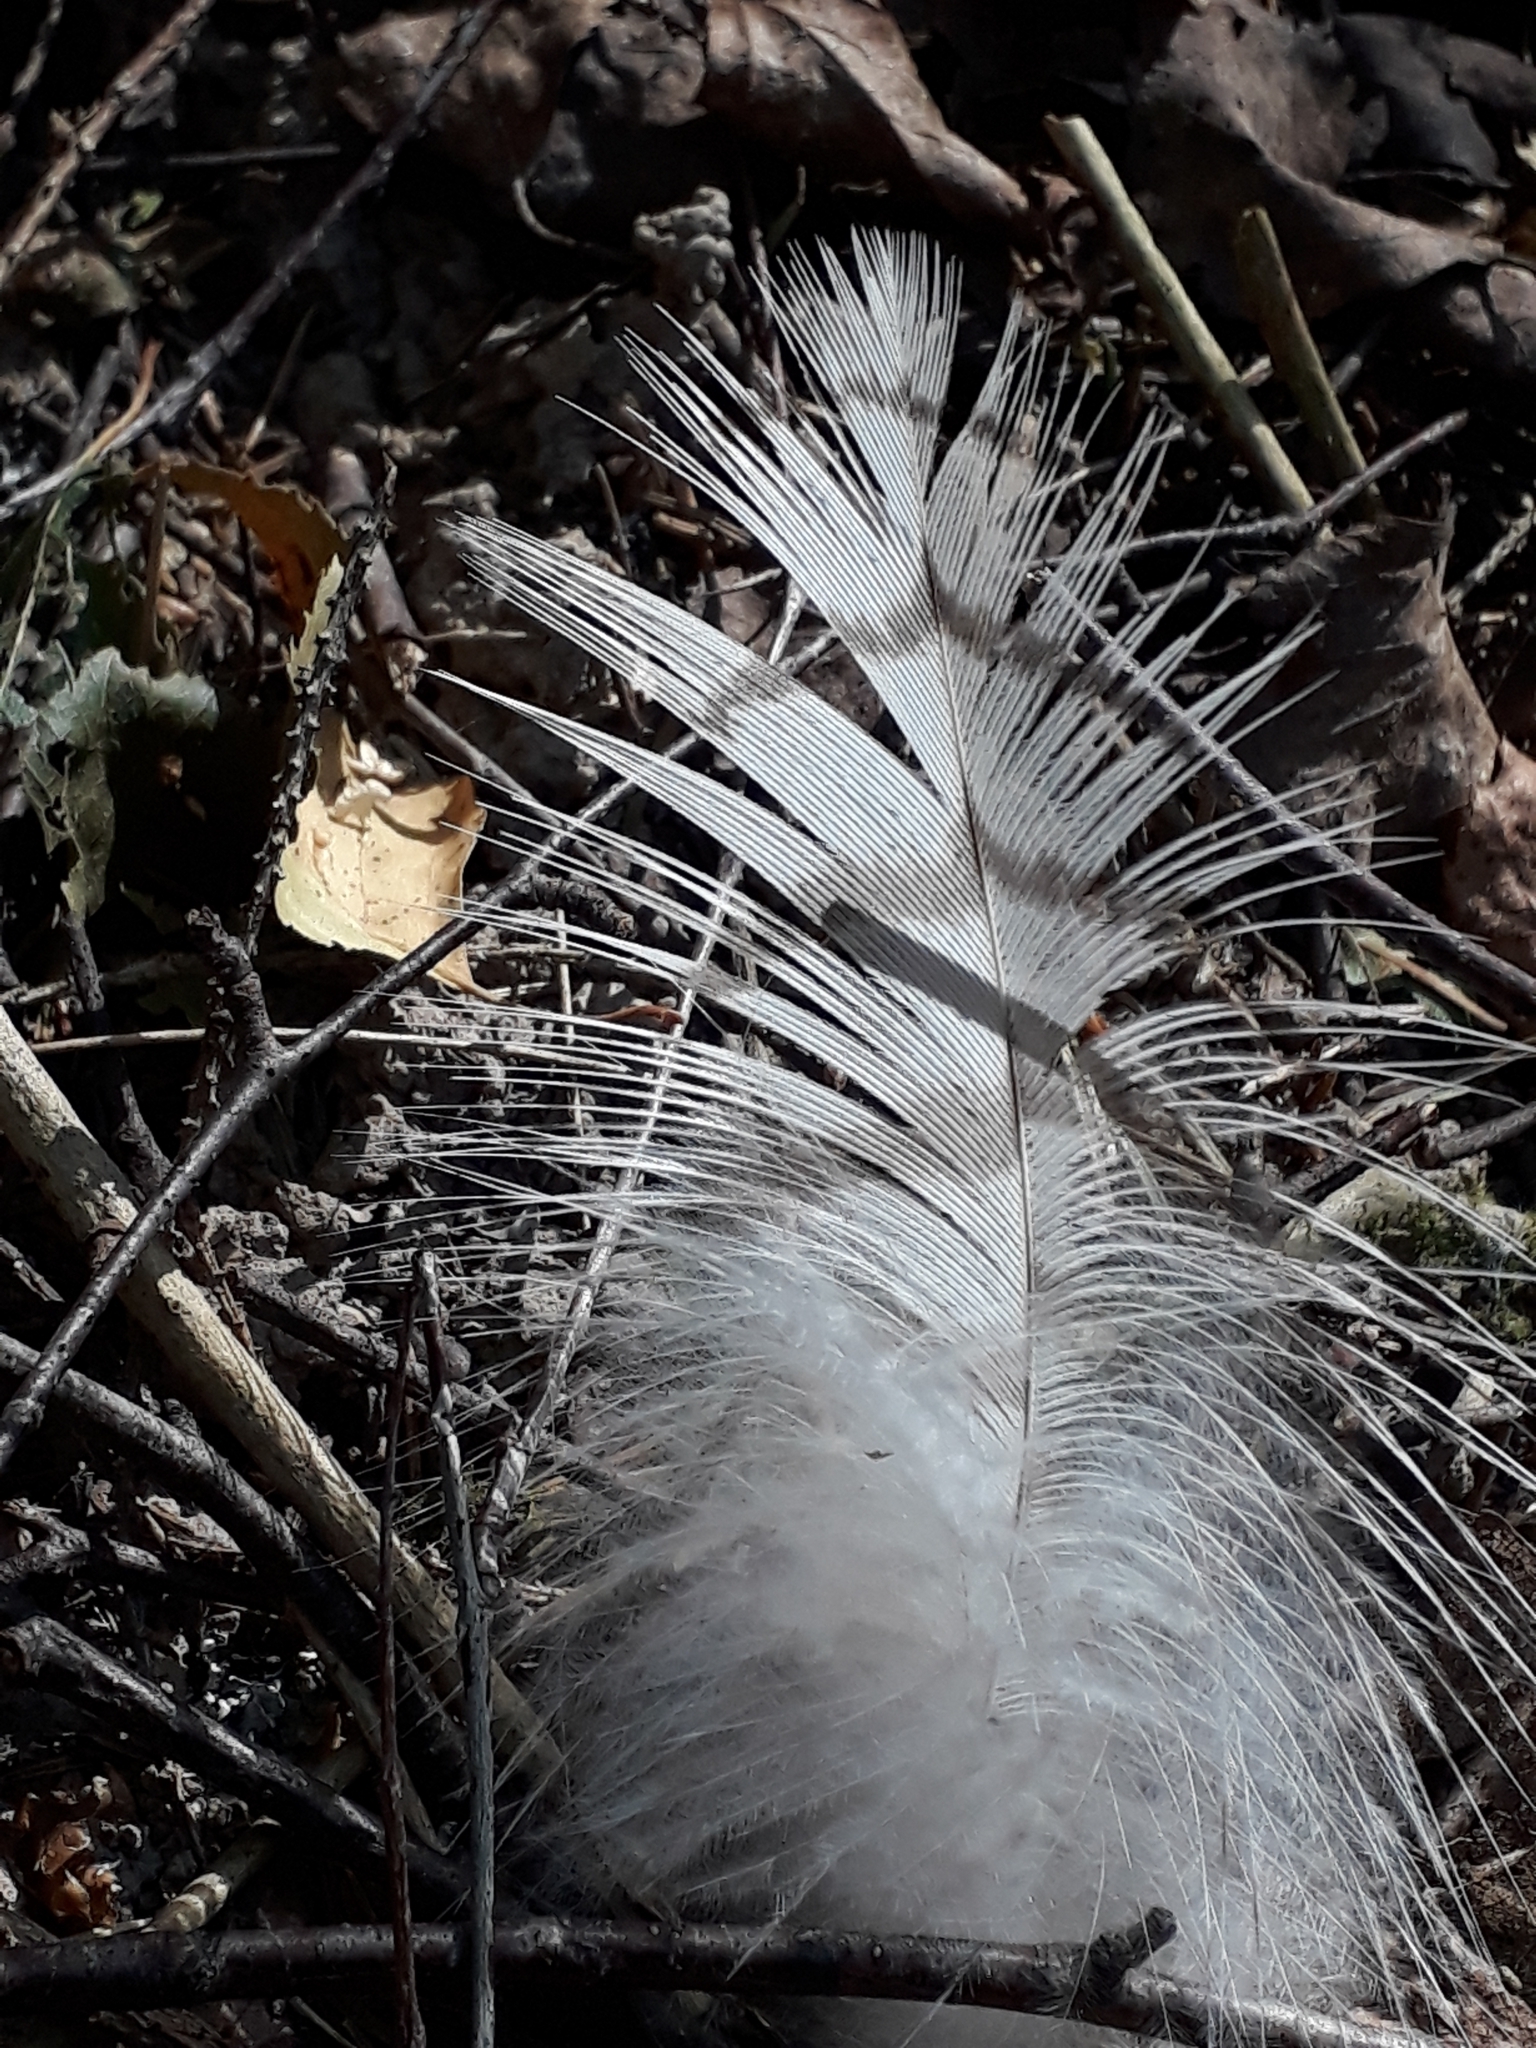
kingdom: Animalia
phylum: Chordata
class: Aves
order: Accipitriformes
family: Accipitridae
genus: Accipiter
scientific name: Accipiter nisus
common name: Eurasian sparrowhawk
